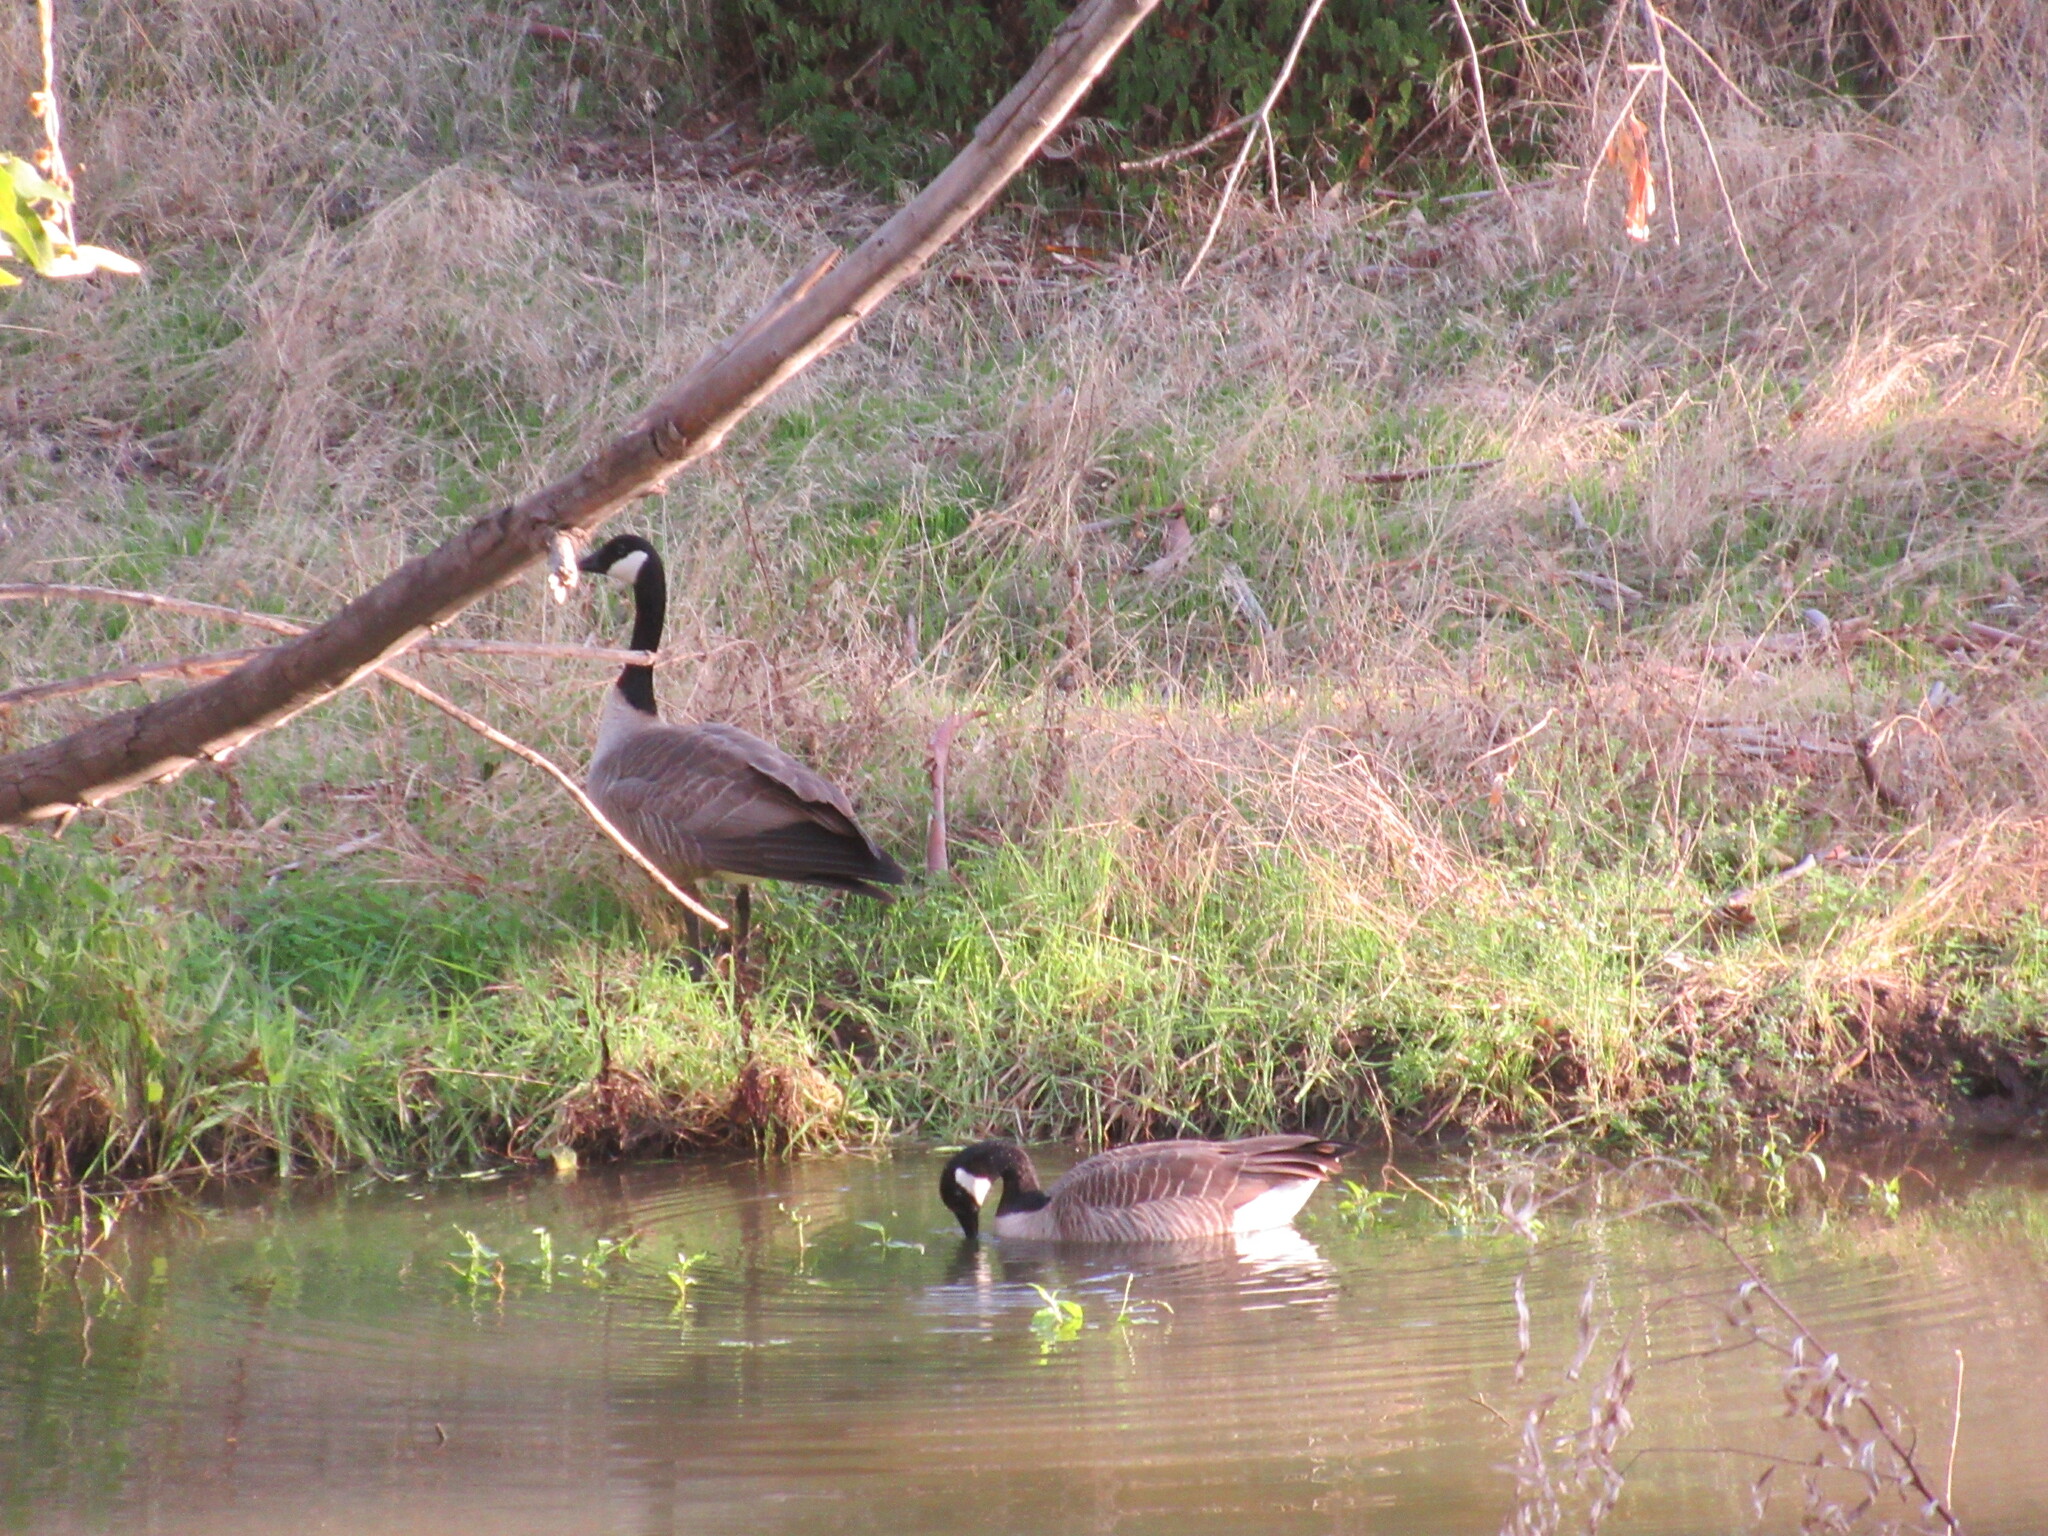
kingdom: Animalia
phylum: Chordata
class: Aves
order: Anseriformes
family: Anatidae
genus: Branta
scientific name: Branta canadensis
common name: Canada goose
